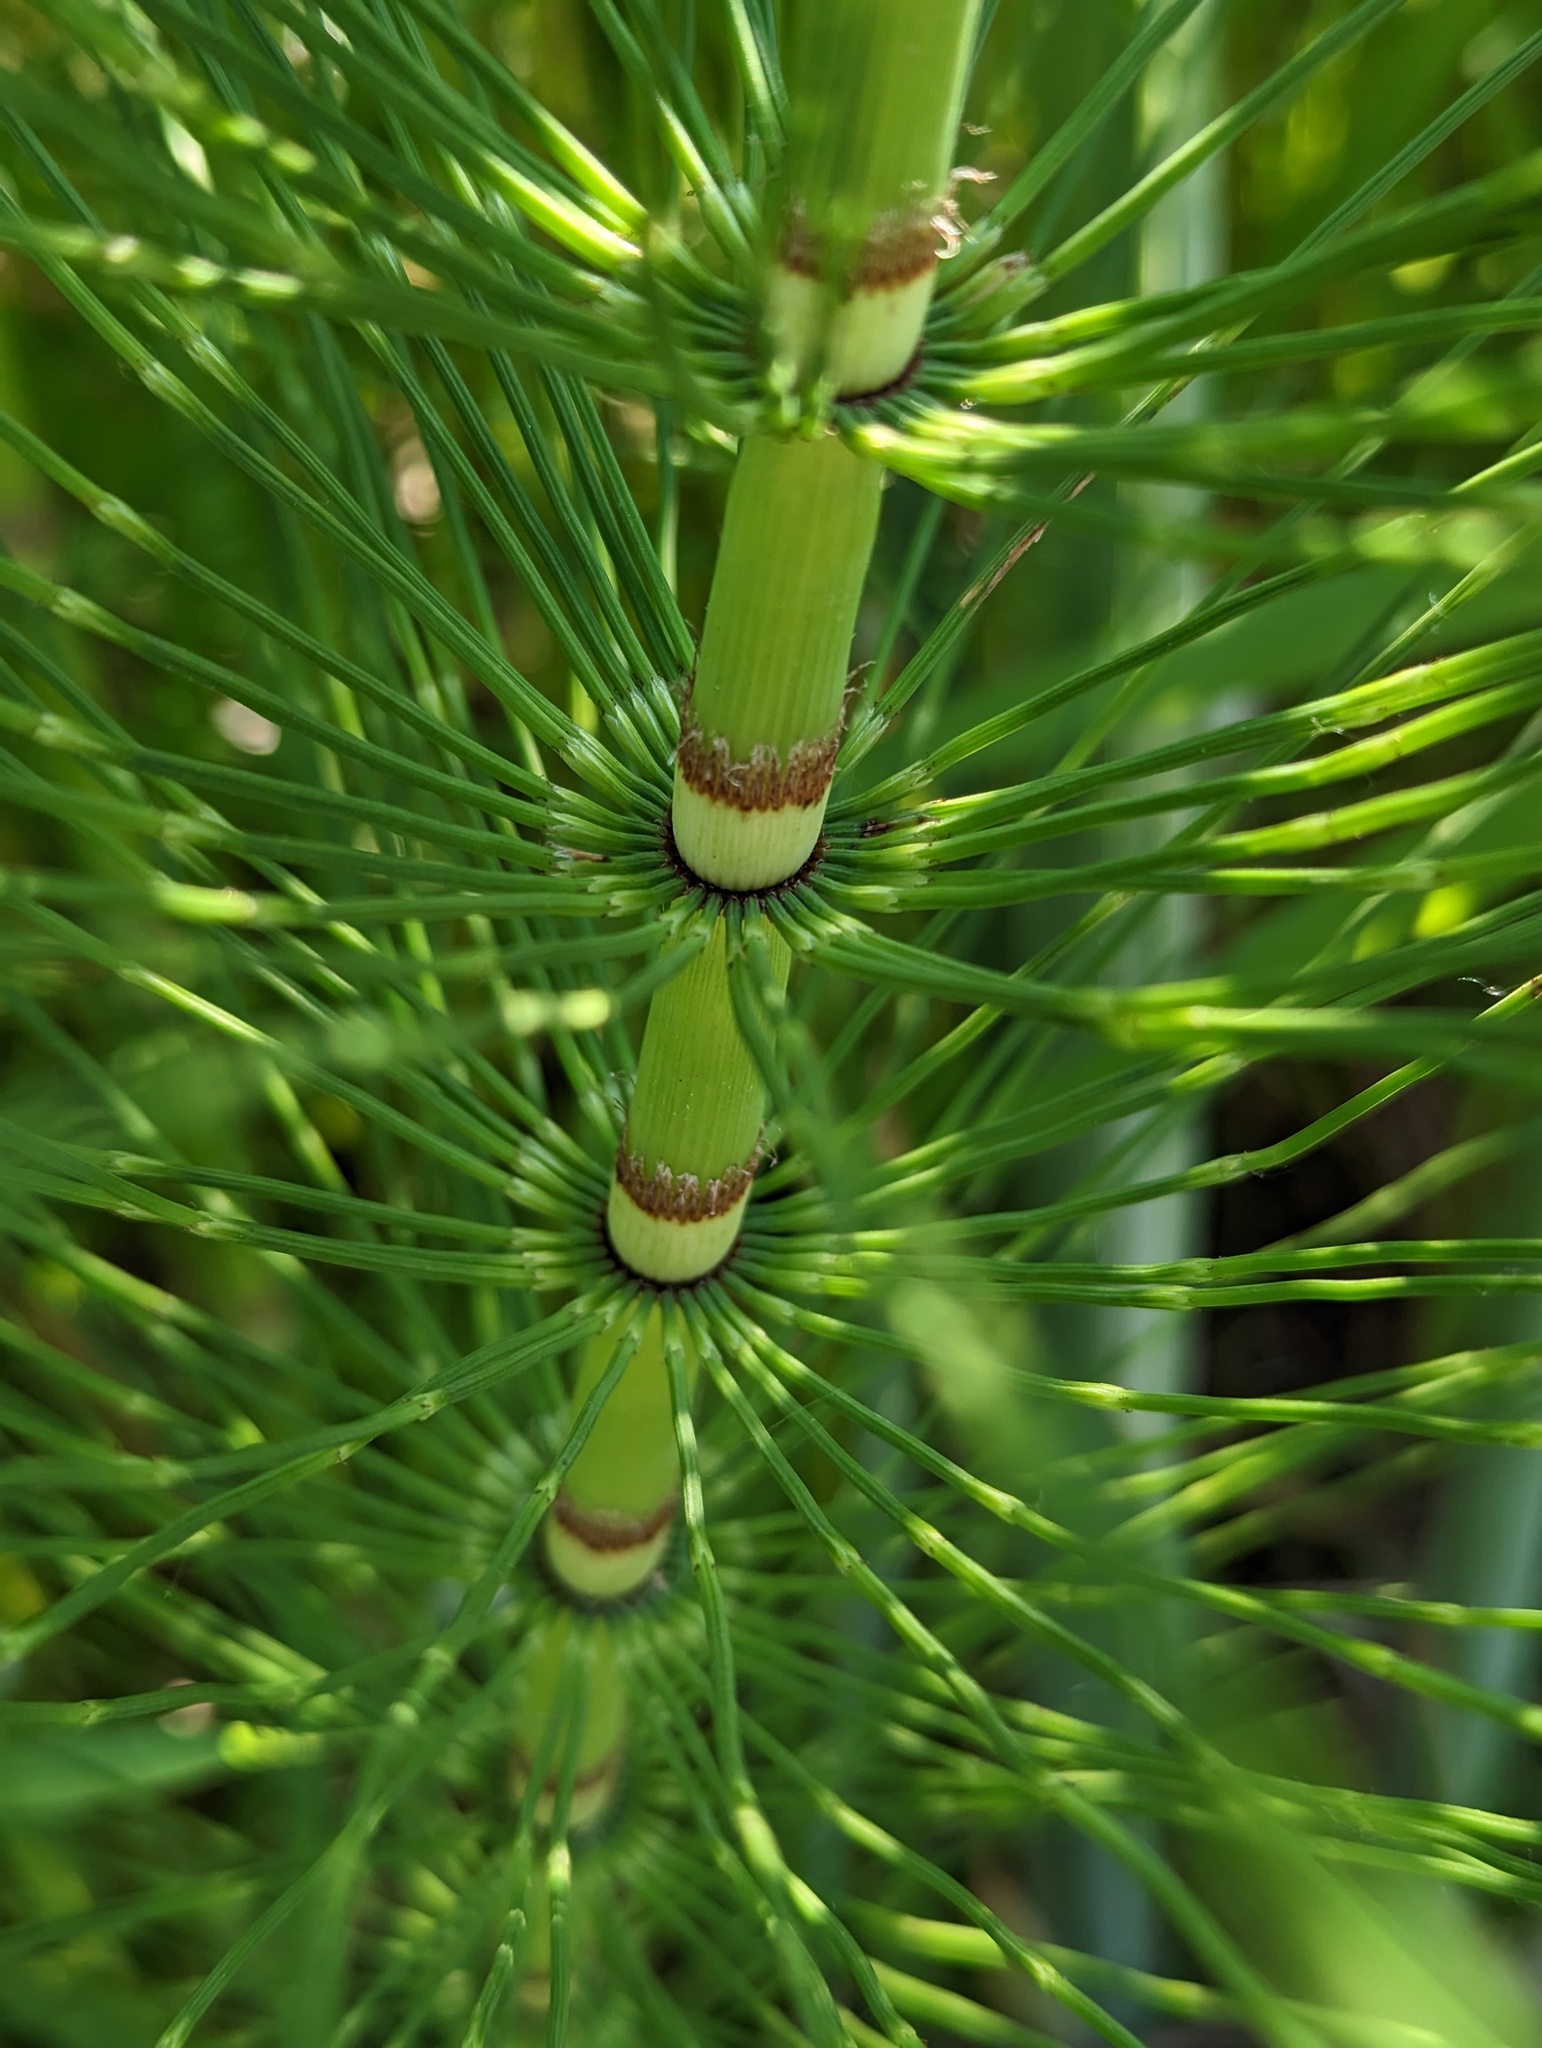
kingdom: Plantae
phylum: Tracheophyta
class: Polypodiopsida
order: Equisetales
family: Equisetaceae
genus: Equisetum
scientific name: Equisetum braunii
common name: Braun's horsetail
